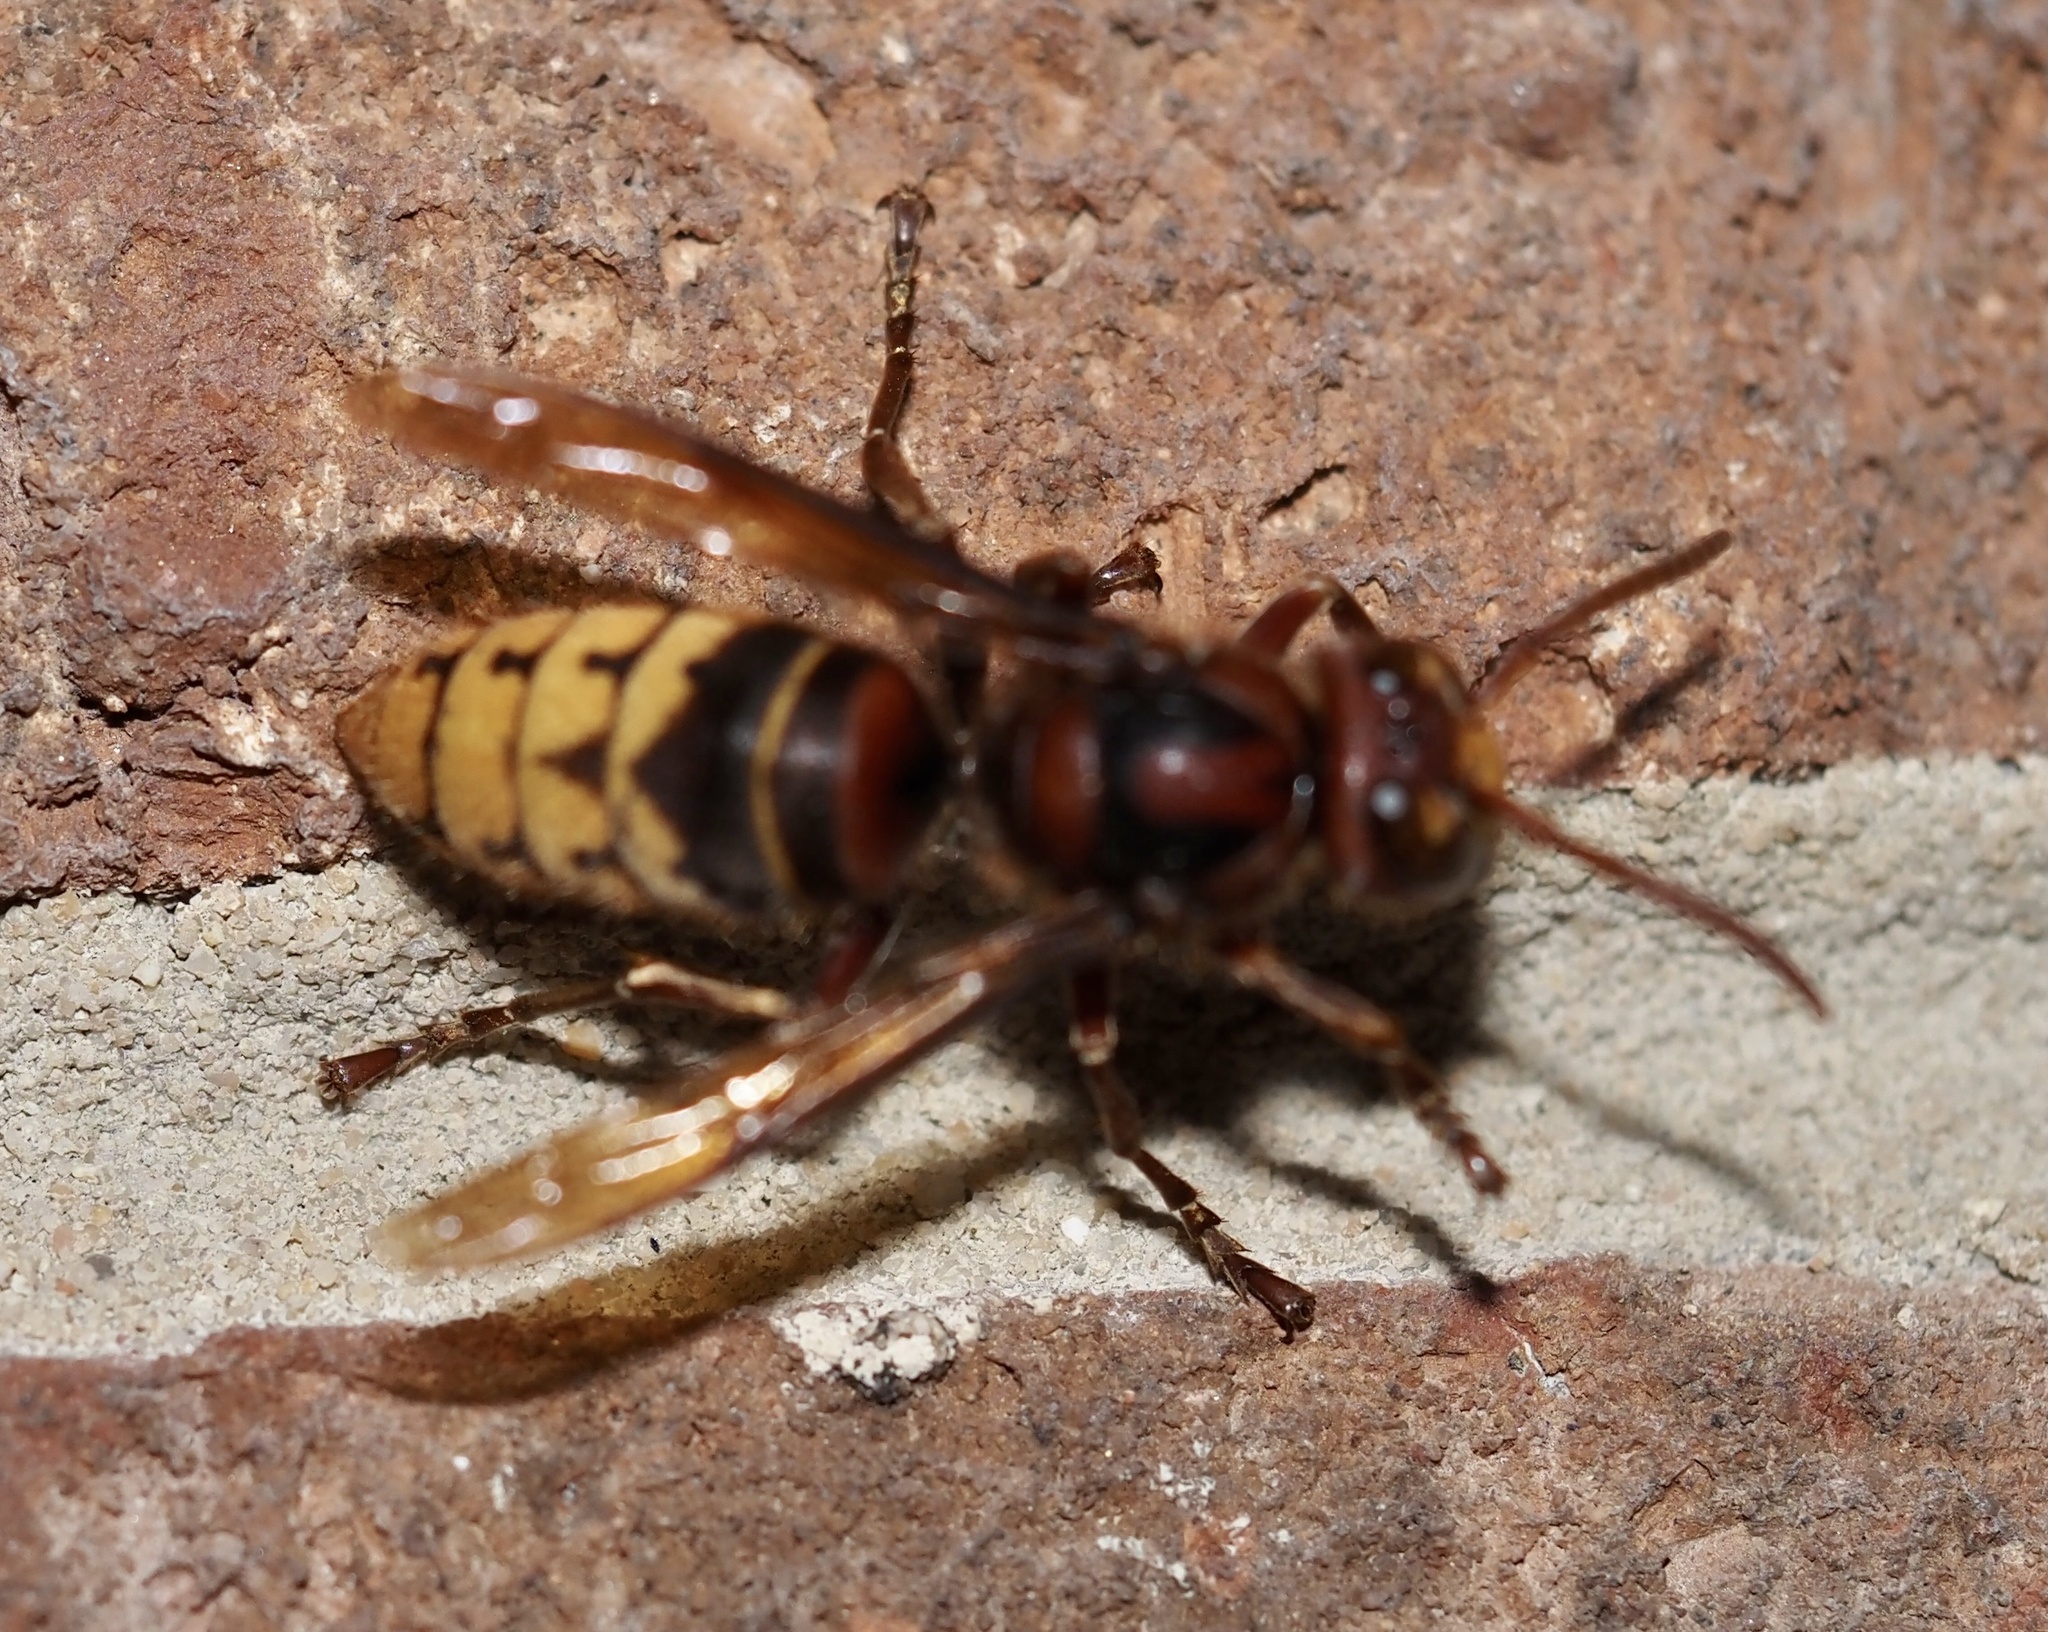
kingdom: Animalia
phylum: Arthropoda
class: Insecta
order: Hymenoptera
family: Vespidae
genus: Vespa
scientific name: Vespa crabro
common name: Hornet
